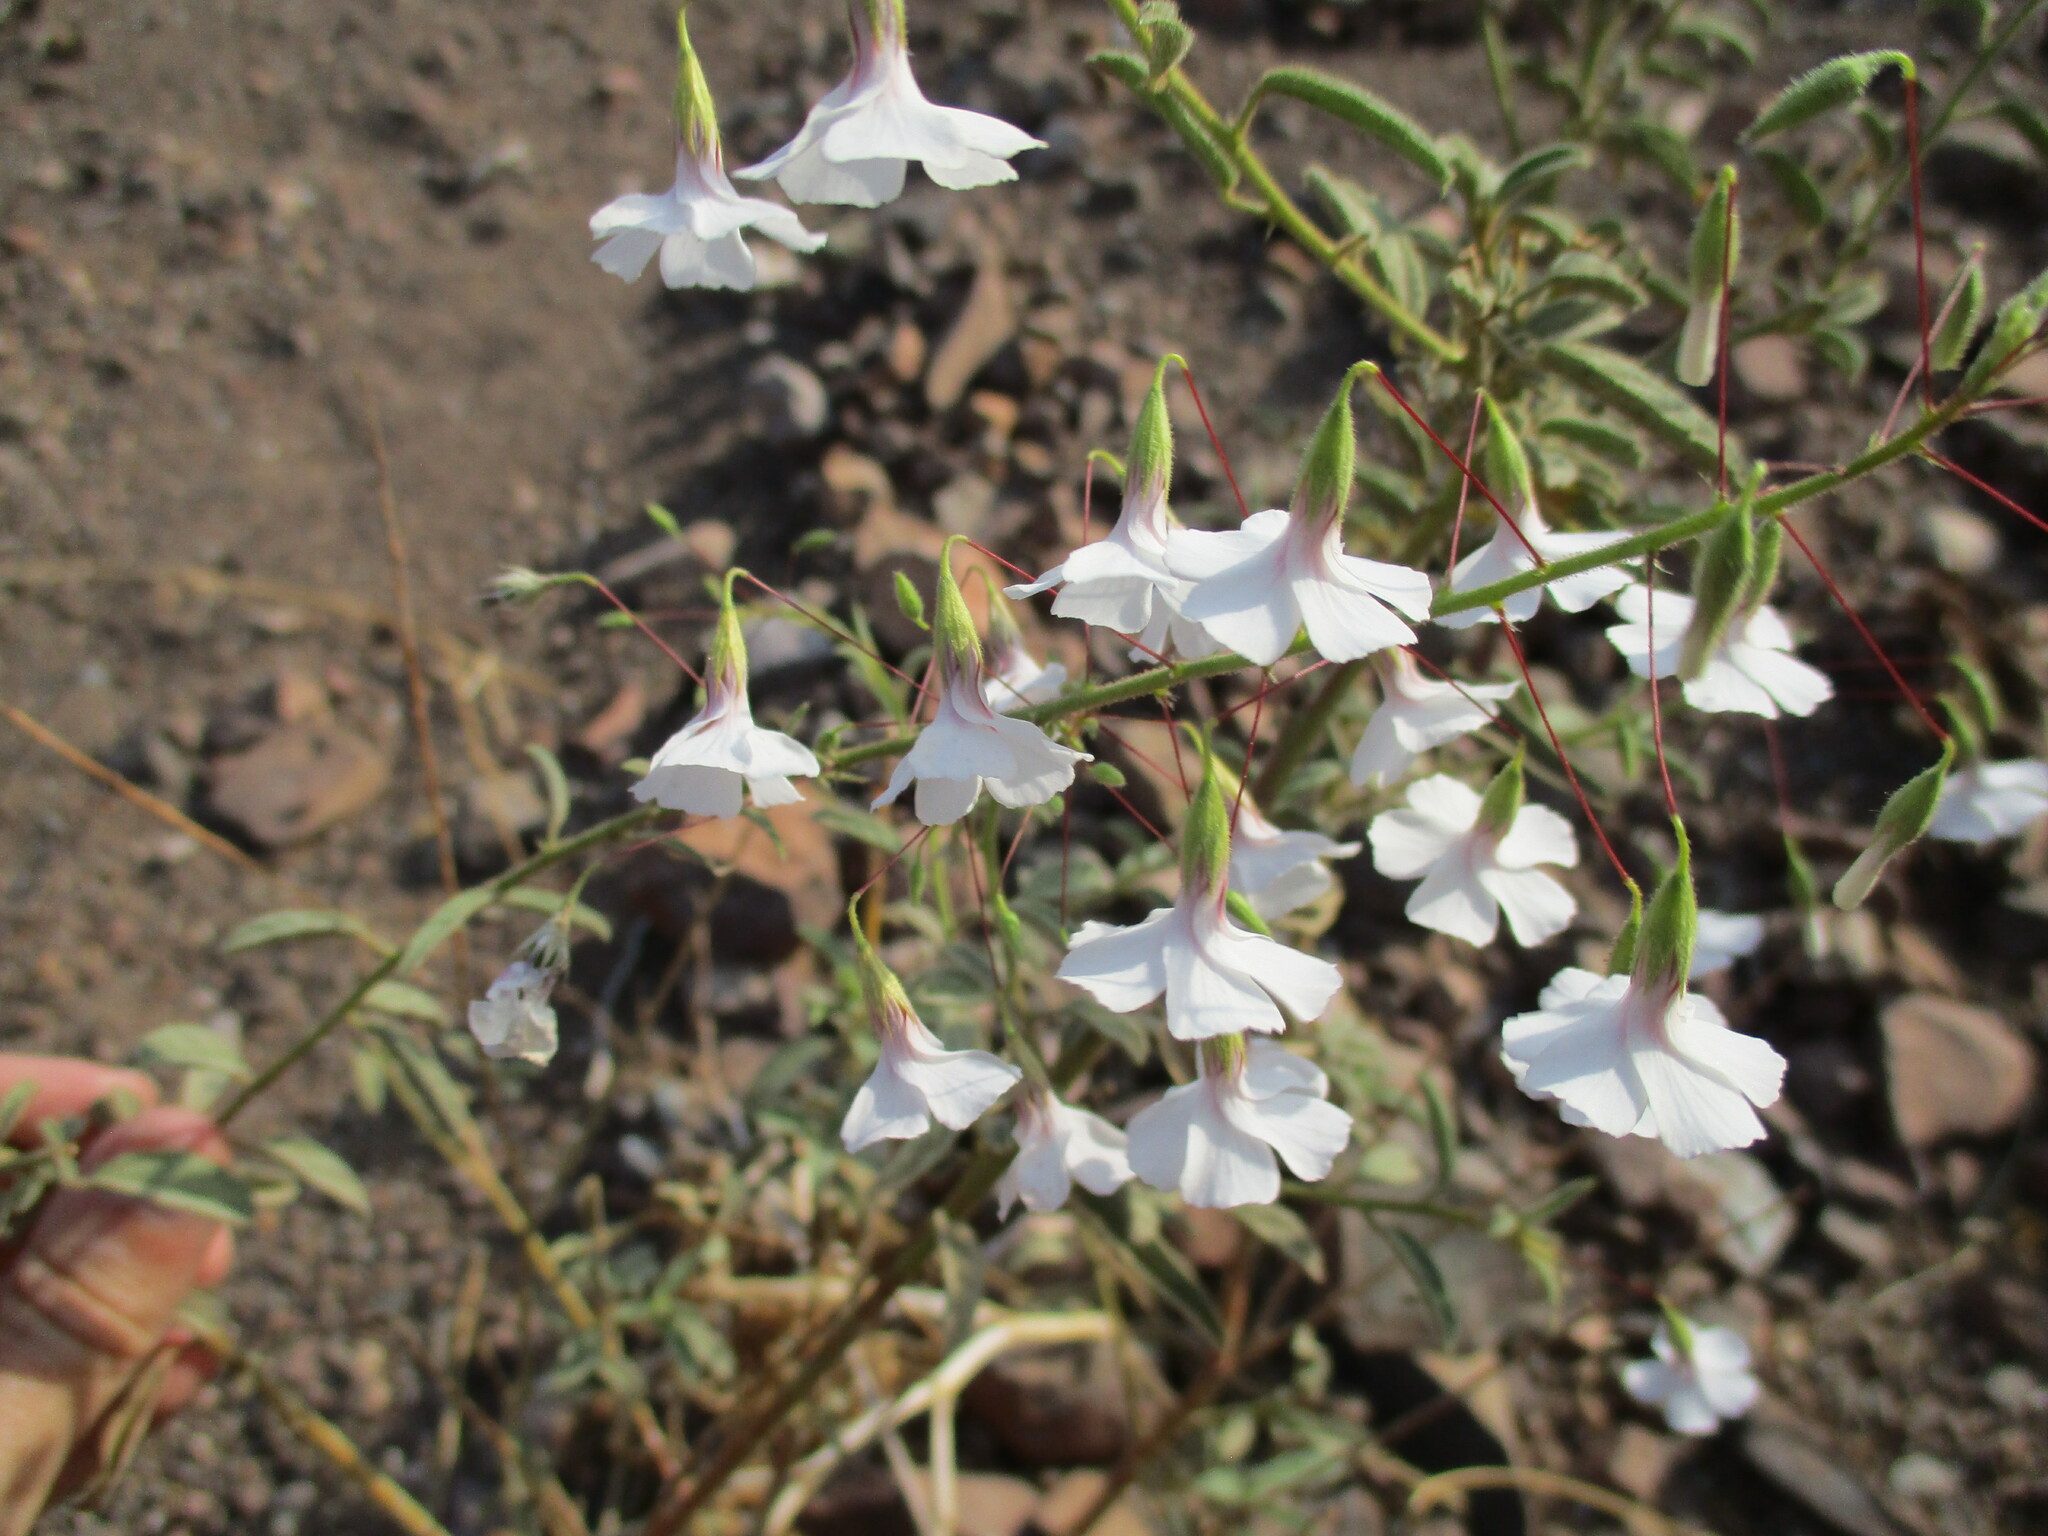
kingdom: Plantae
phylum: Tracheophyta
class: Magnoliopsida
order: Malvales
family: Malvaceae
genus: Hermannia
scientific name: Hermannia amabilis
